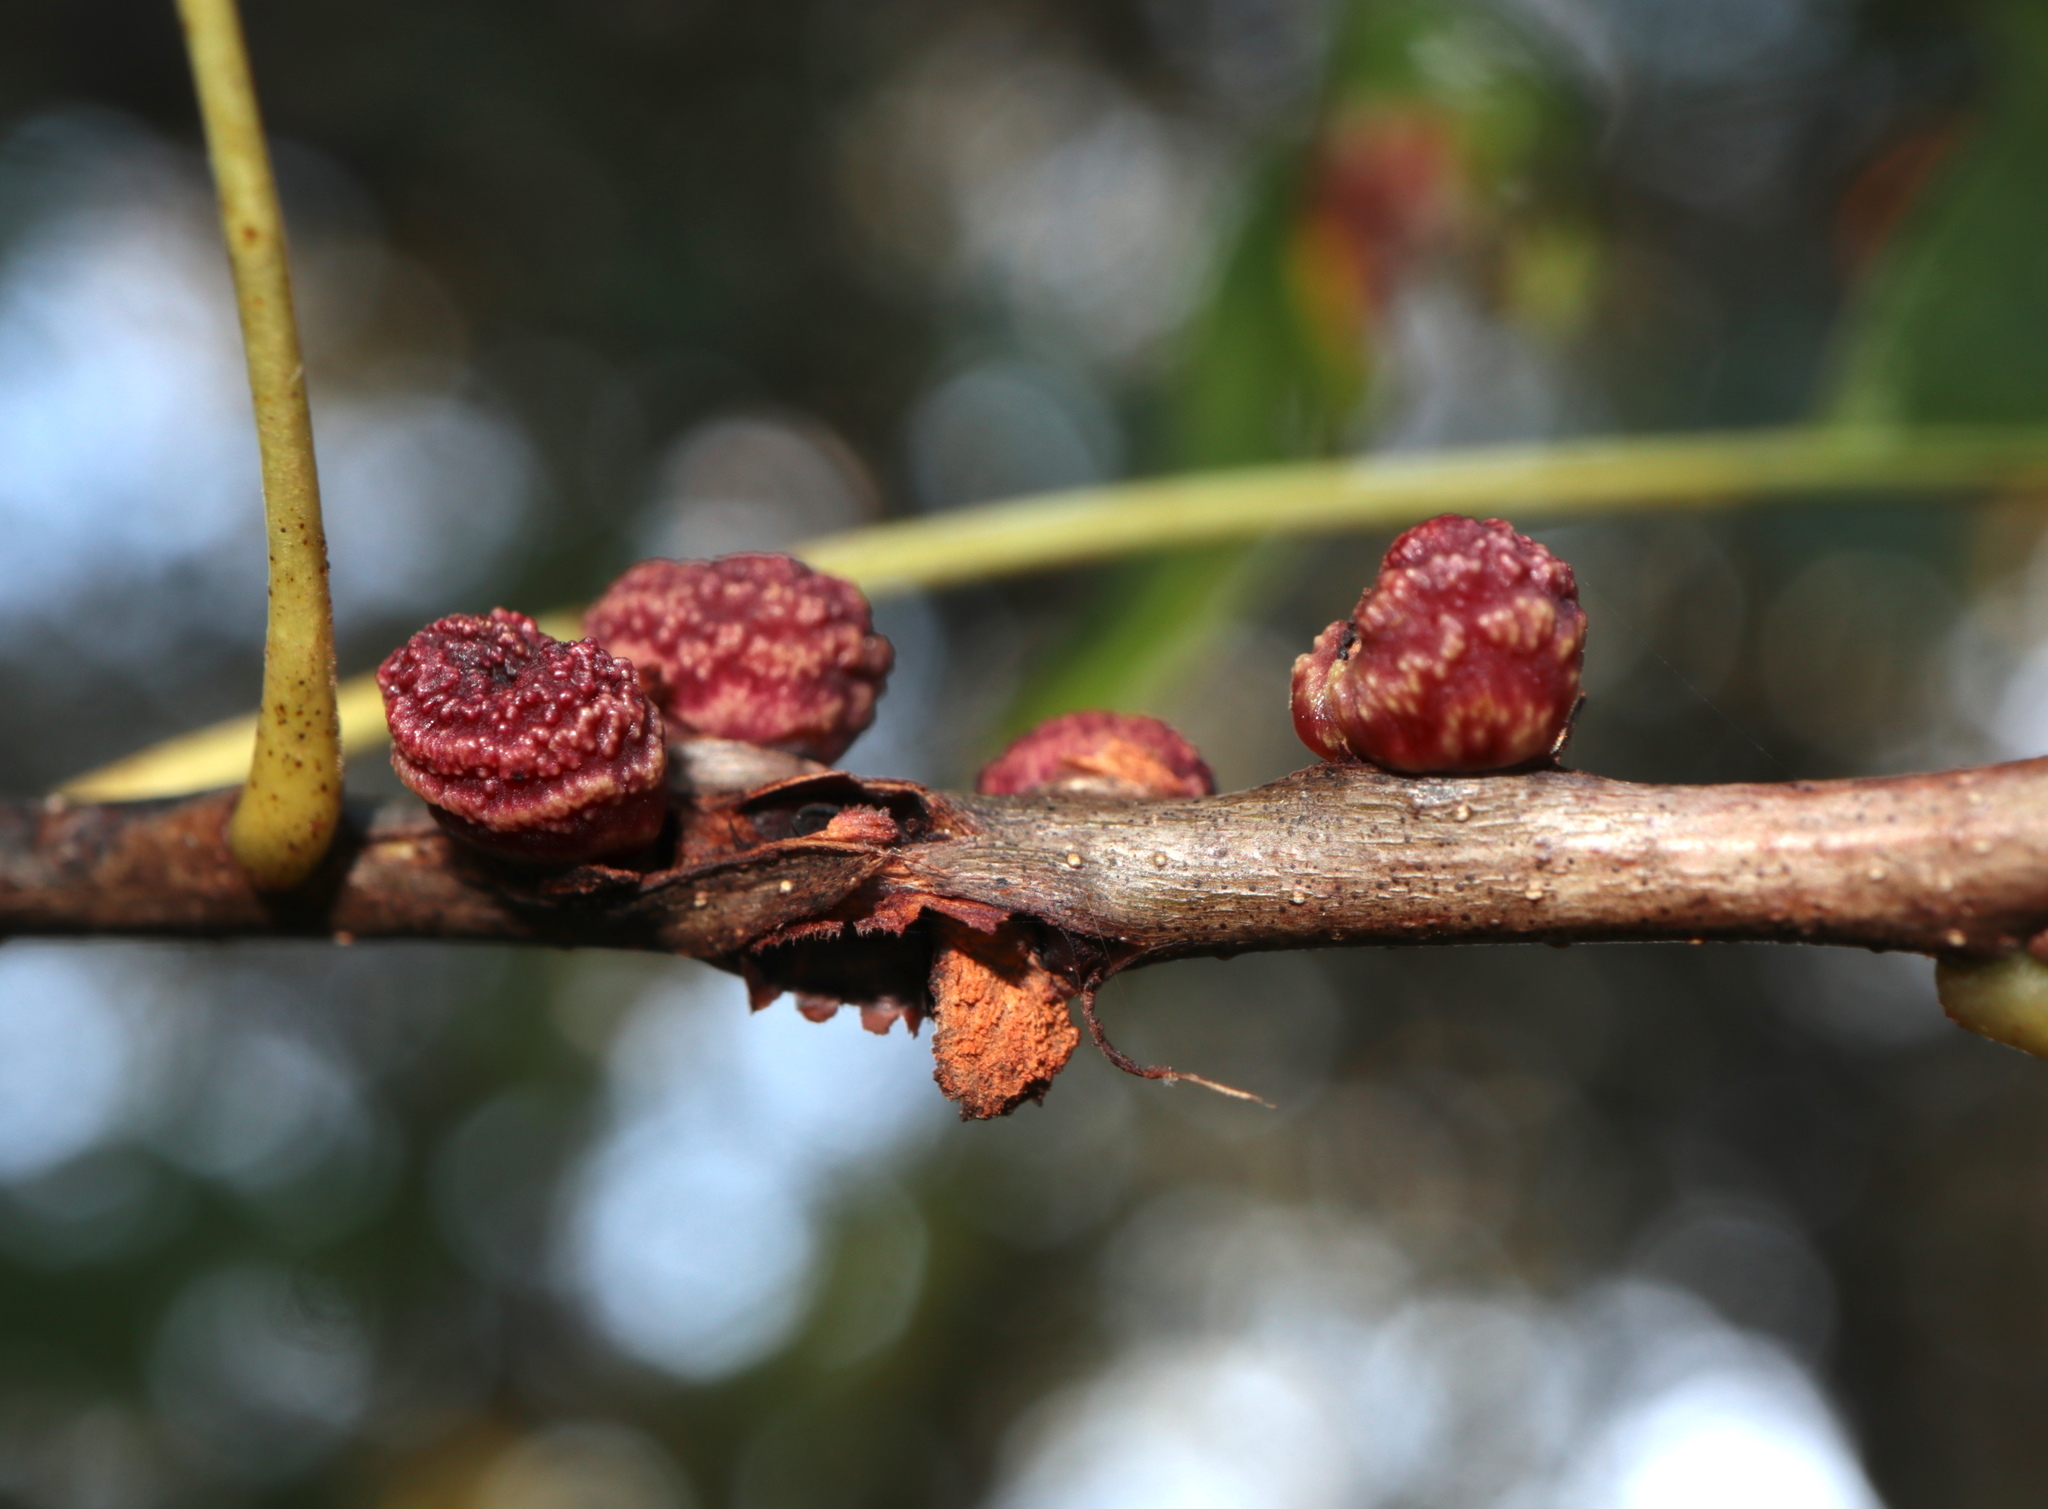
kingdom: Animalia
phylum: Arthropoda
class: Insecta
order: Hymenoptera
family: Cynipidae
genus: Kokkocynips
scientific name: Kokkocynips difficilis
